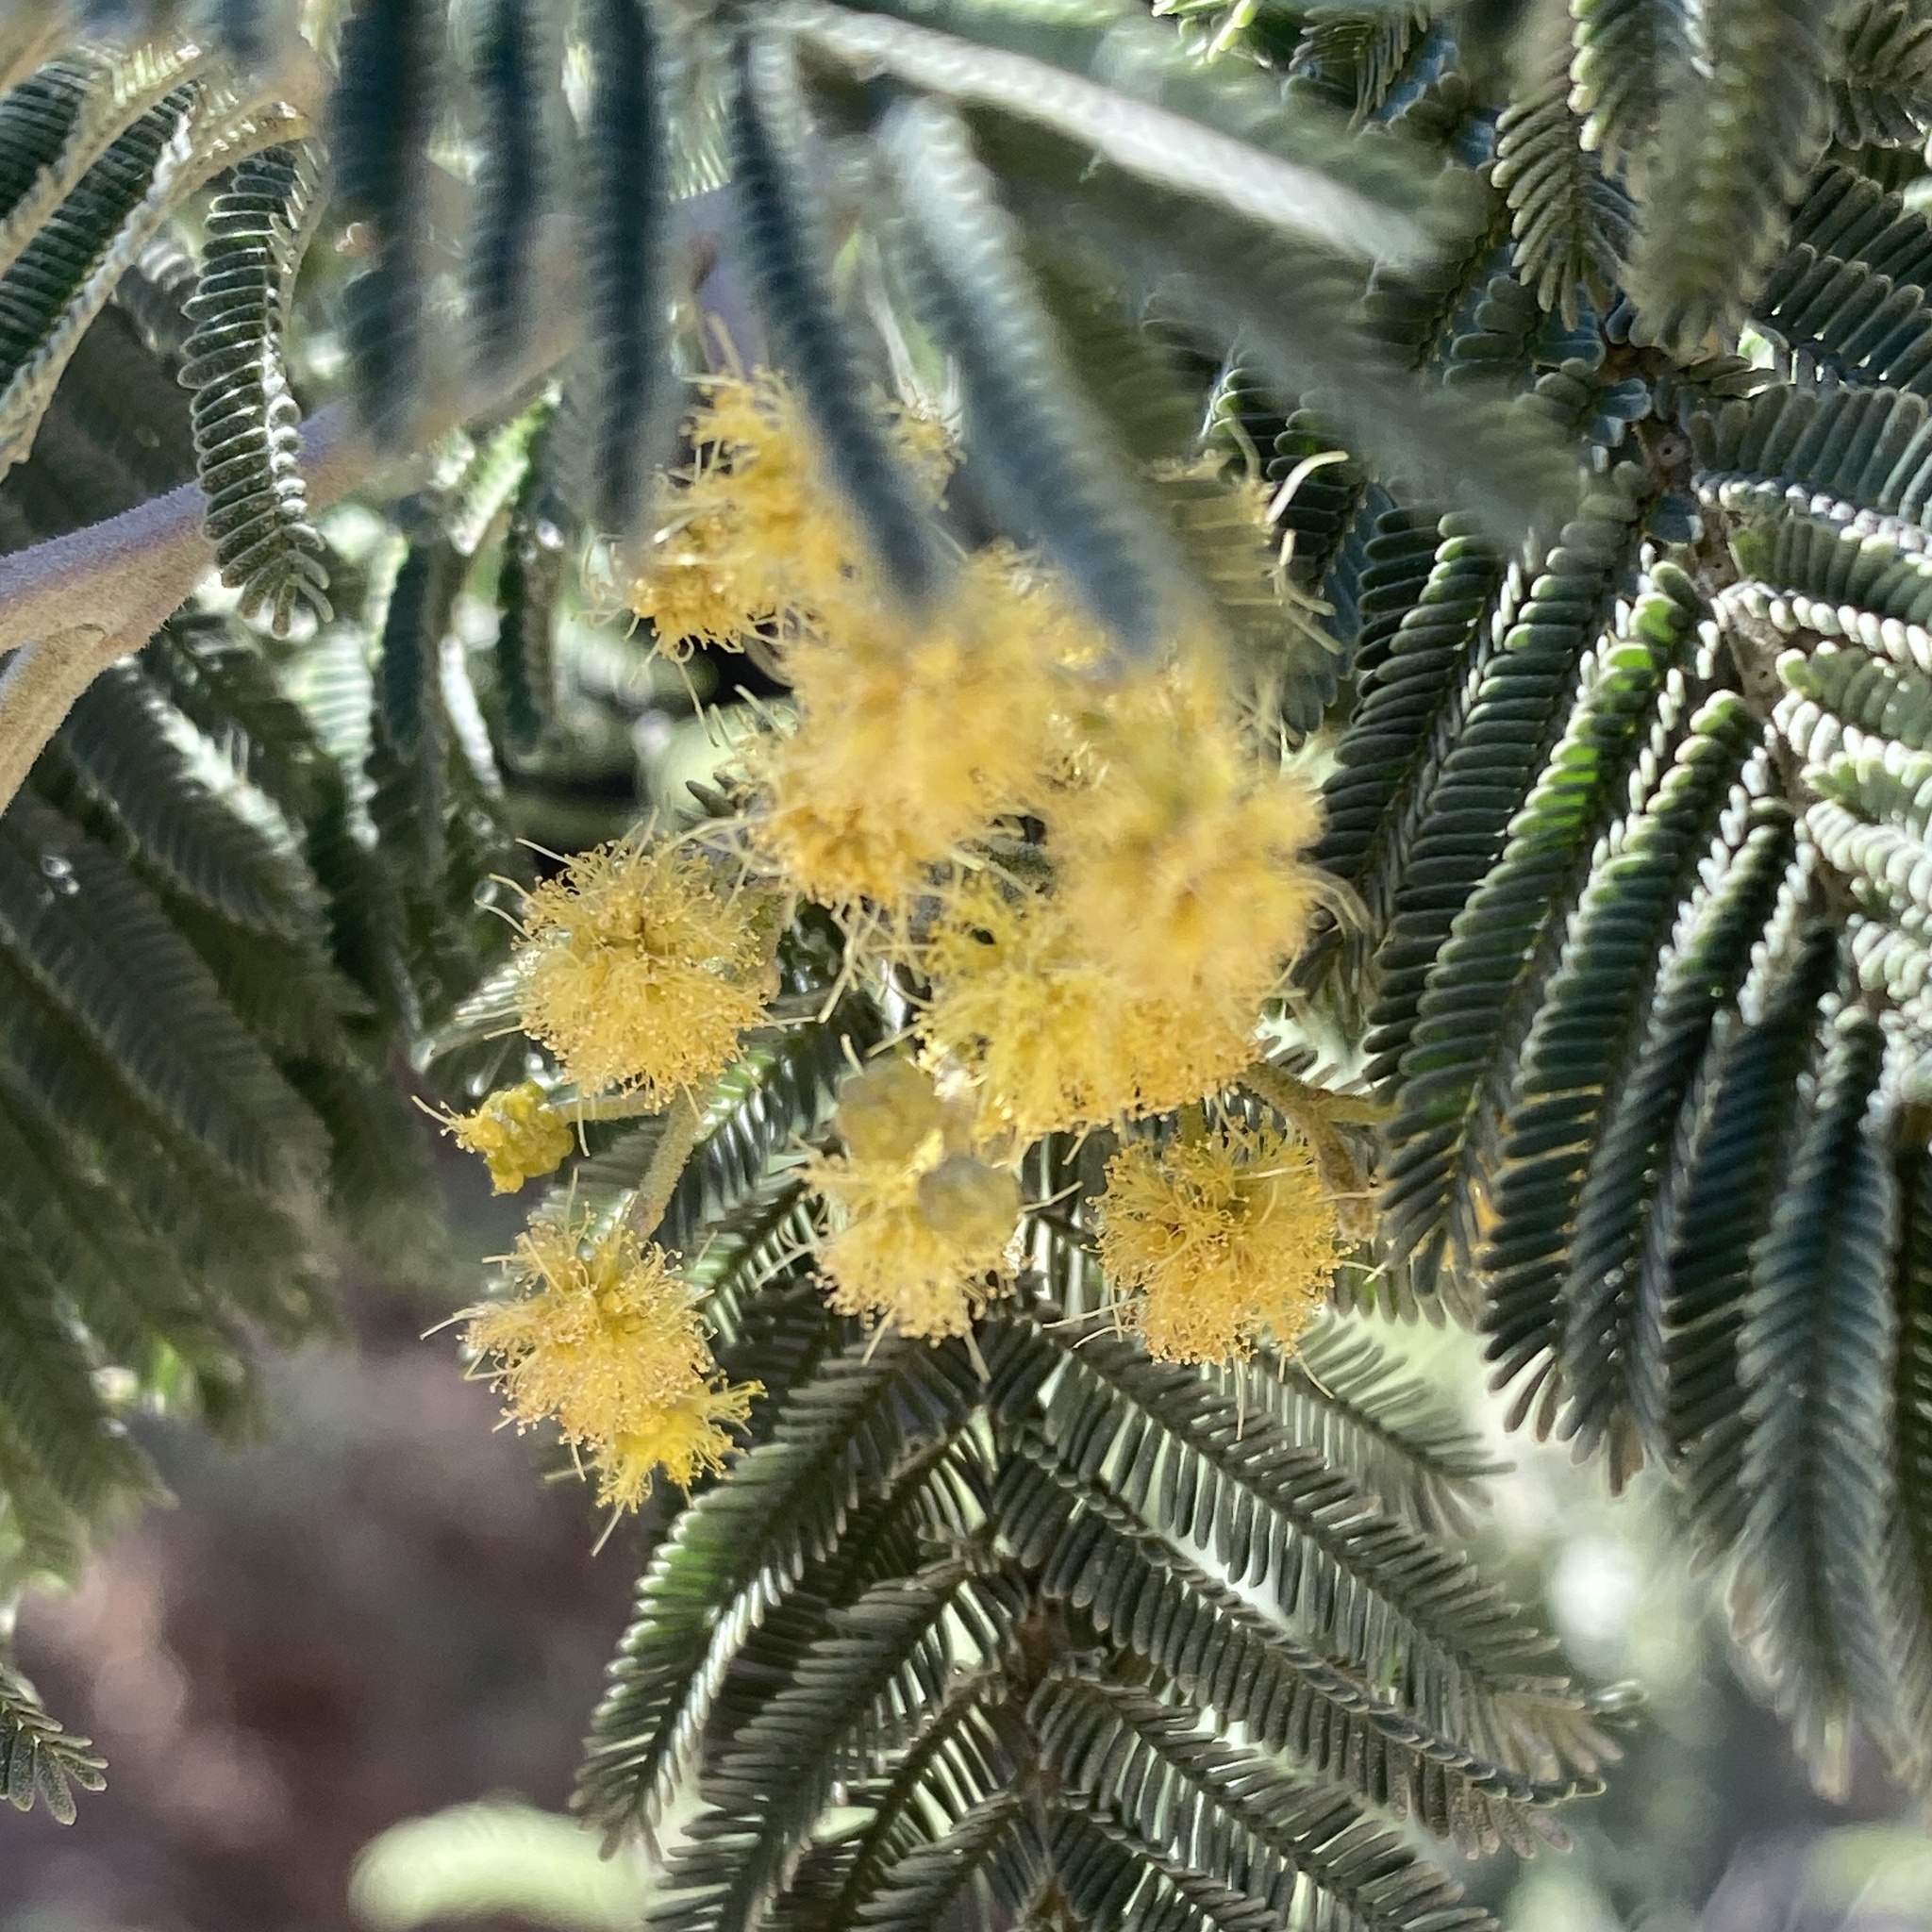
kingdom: Plantae
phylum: Tracheophyta
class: Magnoliopsida
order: Fabales
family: Fabaceae
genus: Acacia
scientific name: Acacia dealbata
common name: Silver wattle
